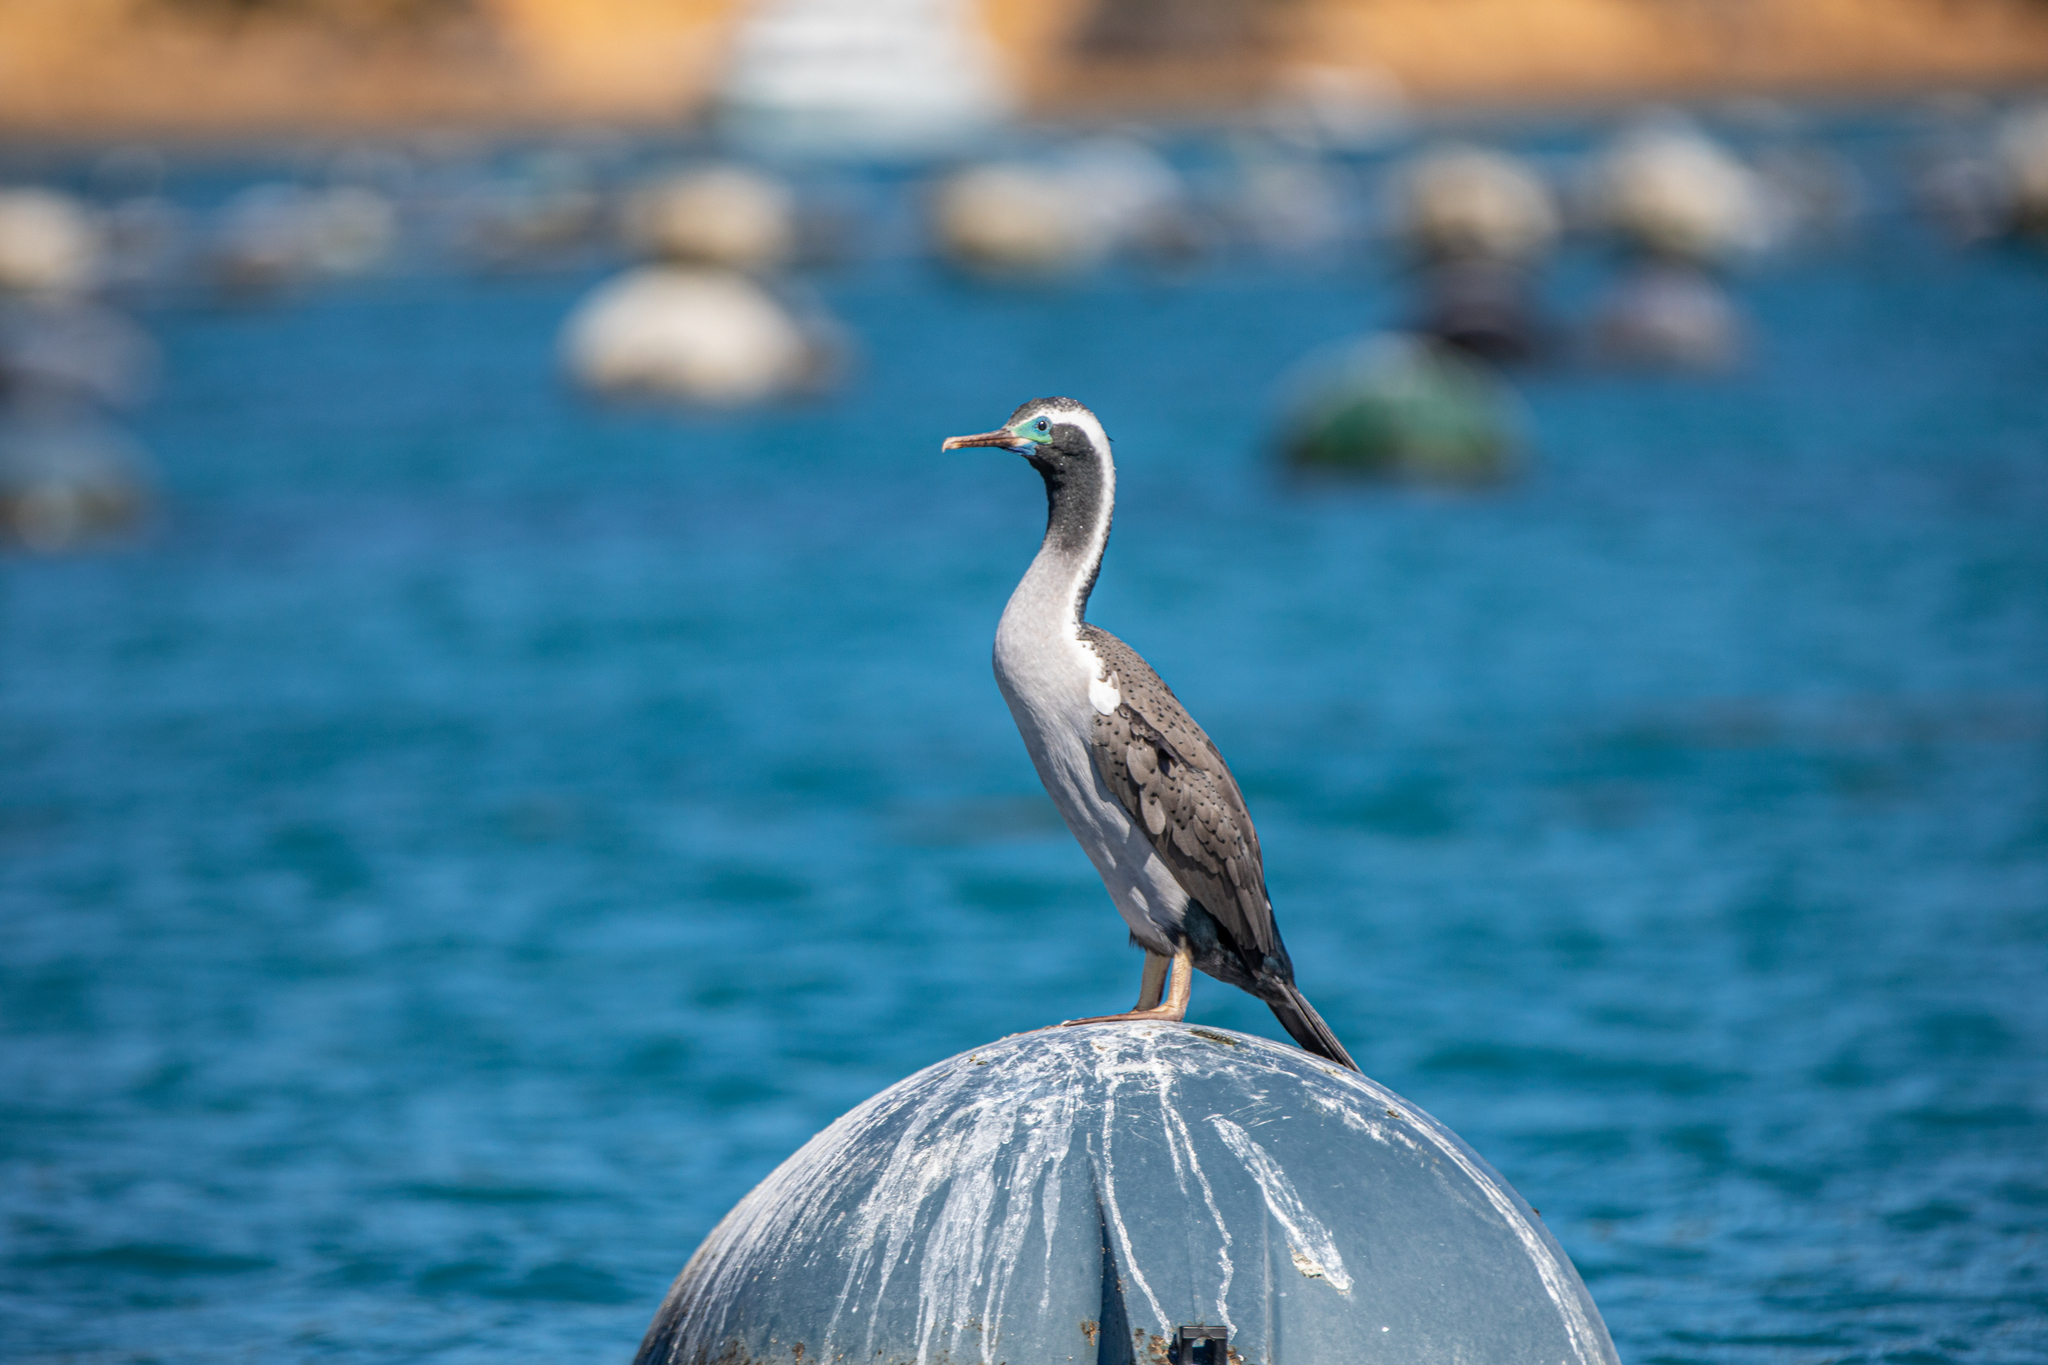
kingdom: Animalia
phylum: Chordata
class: Aves
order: Suliformes
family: Phalacrocoracidae
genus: Phalacrocorax
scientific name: Phalacrocorax punctatus
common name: Spotted shag
